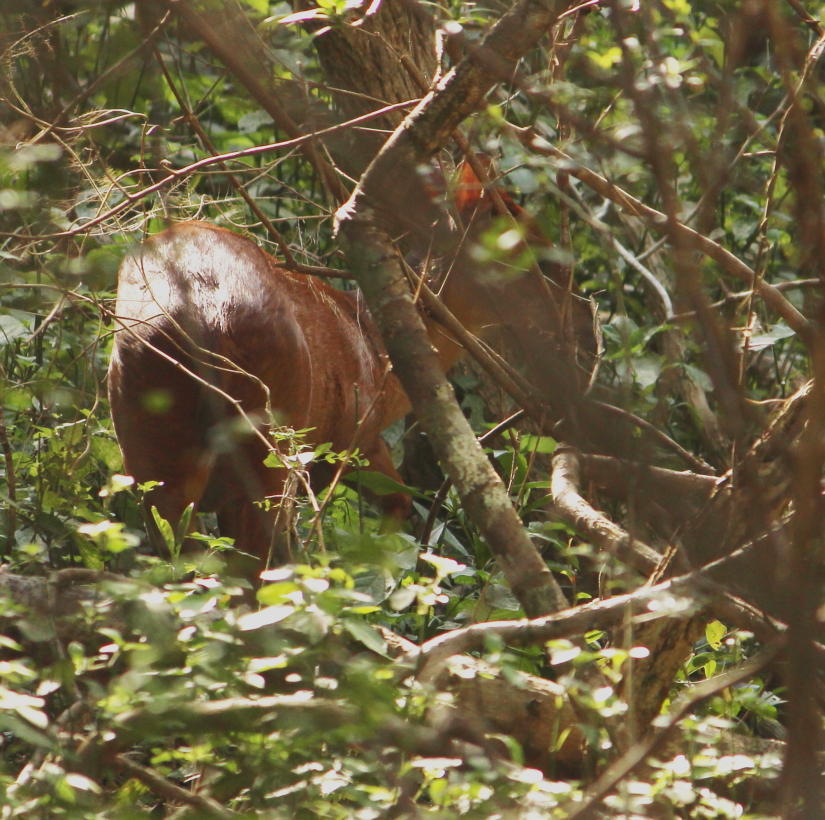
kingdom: Animalia
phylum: Chordata
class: Mammalia
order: Artiodactyla
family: Bovidae
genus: Cephalophus
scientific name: Cephalophus natalensis
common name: Red duiker
